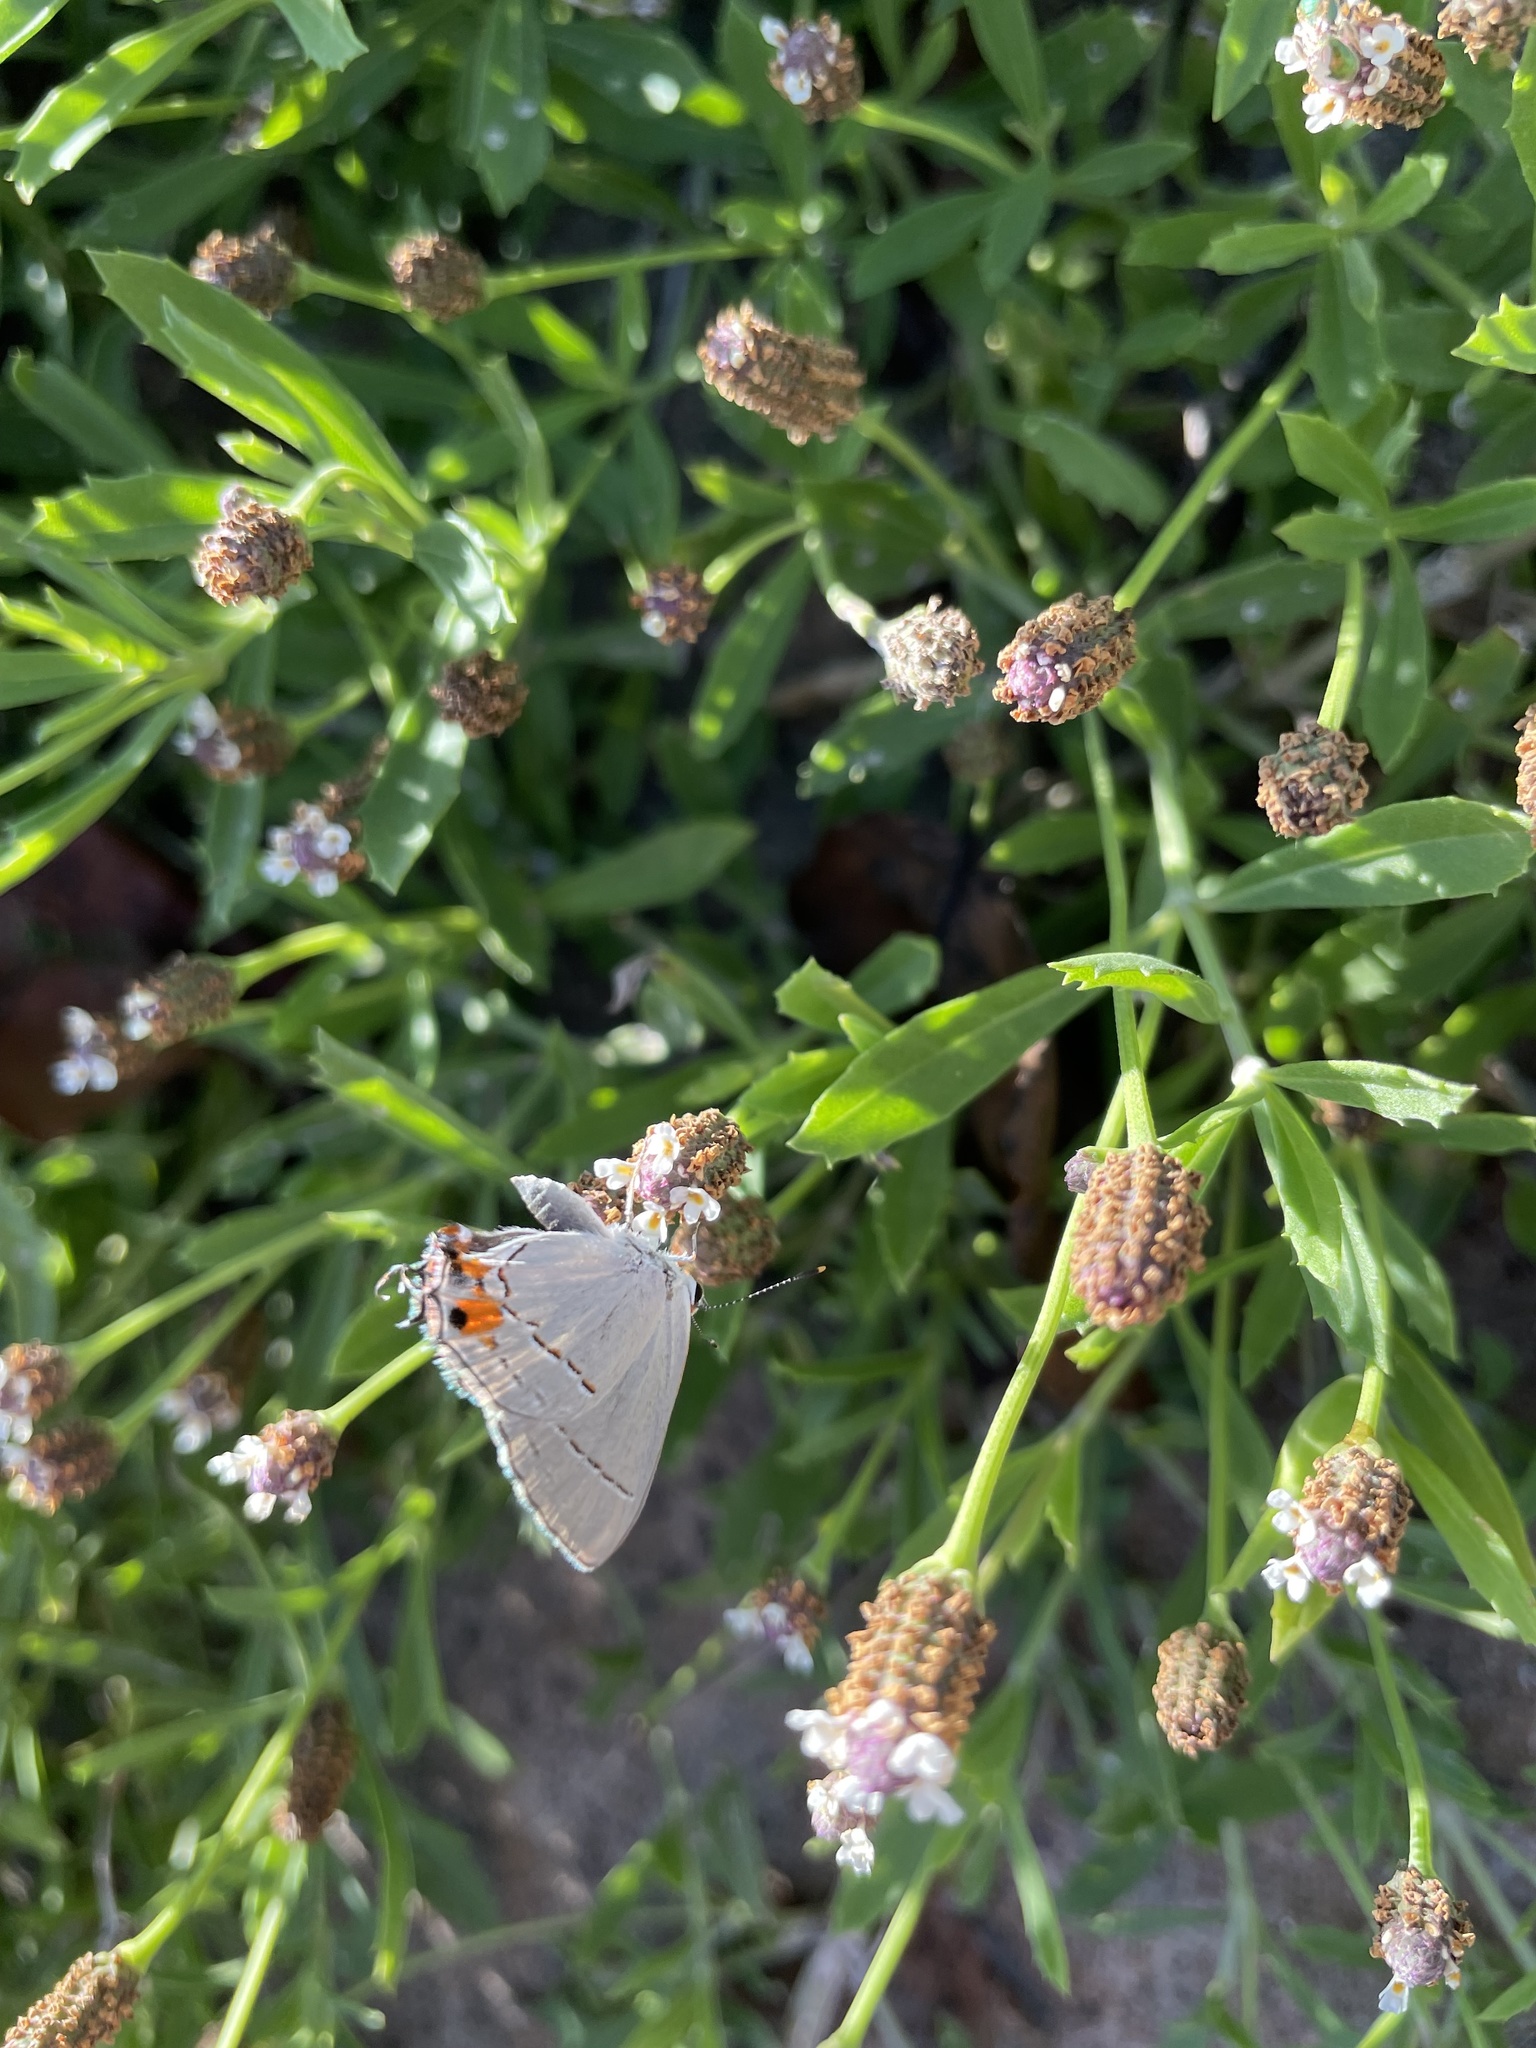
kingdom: Animalia
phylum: Arthropoda
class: Insecta
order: Lepidoptera
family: Lycaenidae
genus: Strymon
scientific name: Strymon melinus
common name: Gray hairstreak
